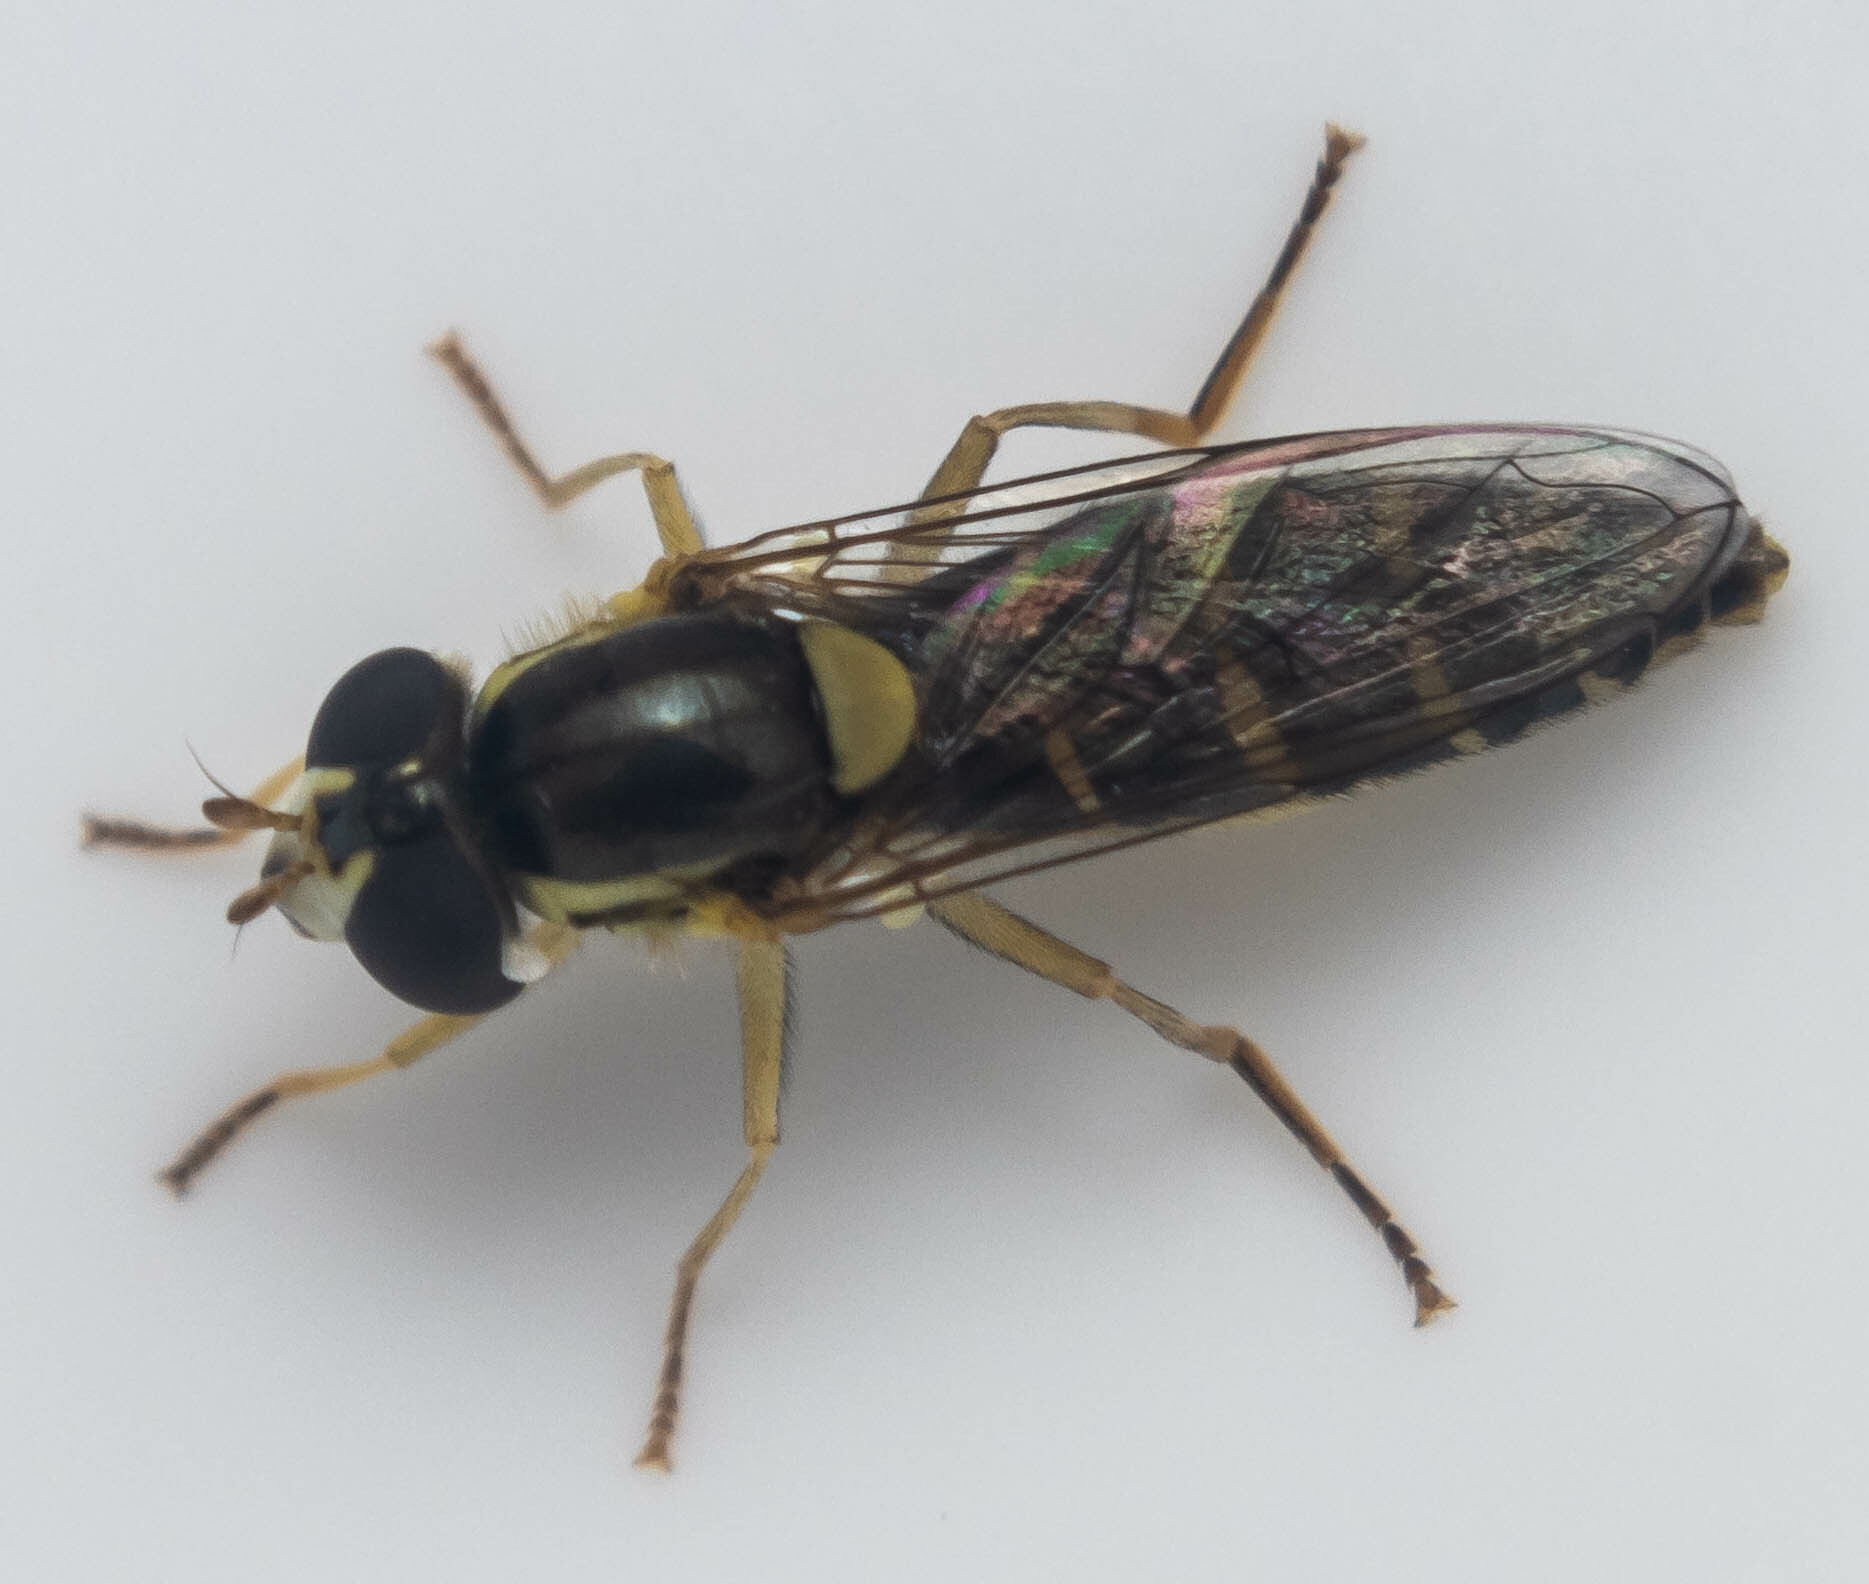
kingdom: Animalia
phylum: Arthropoda
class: Insecta
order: Diptera
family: Syrphidae
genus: Sphaerophoria
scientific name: Sphaerophoria
